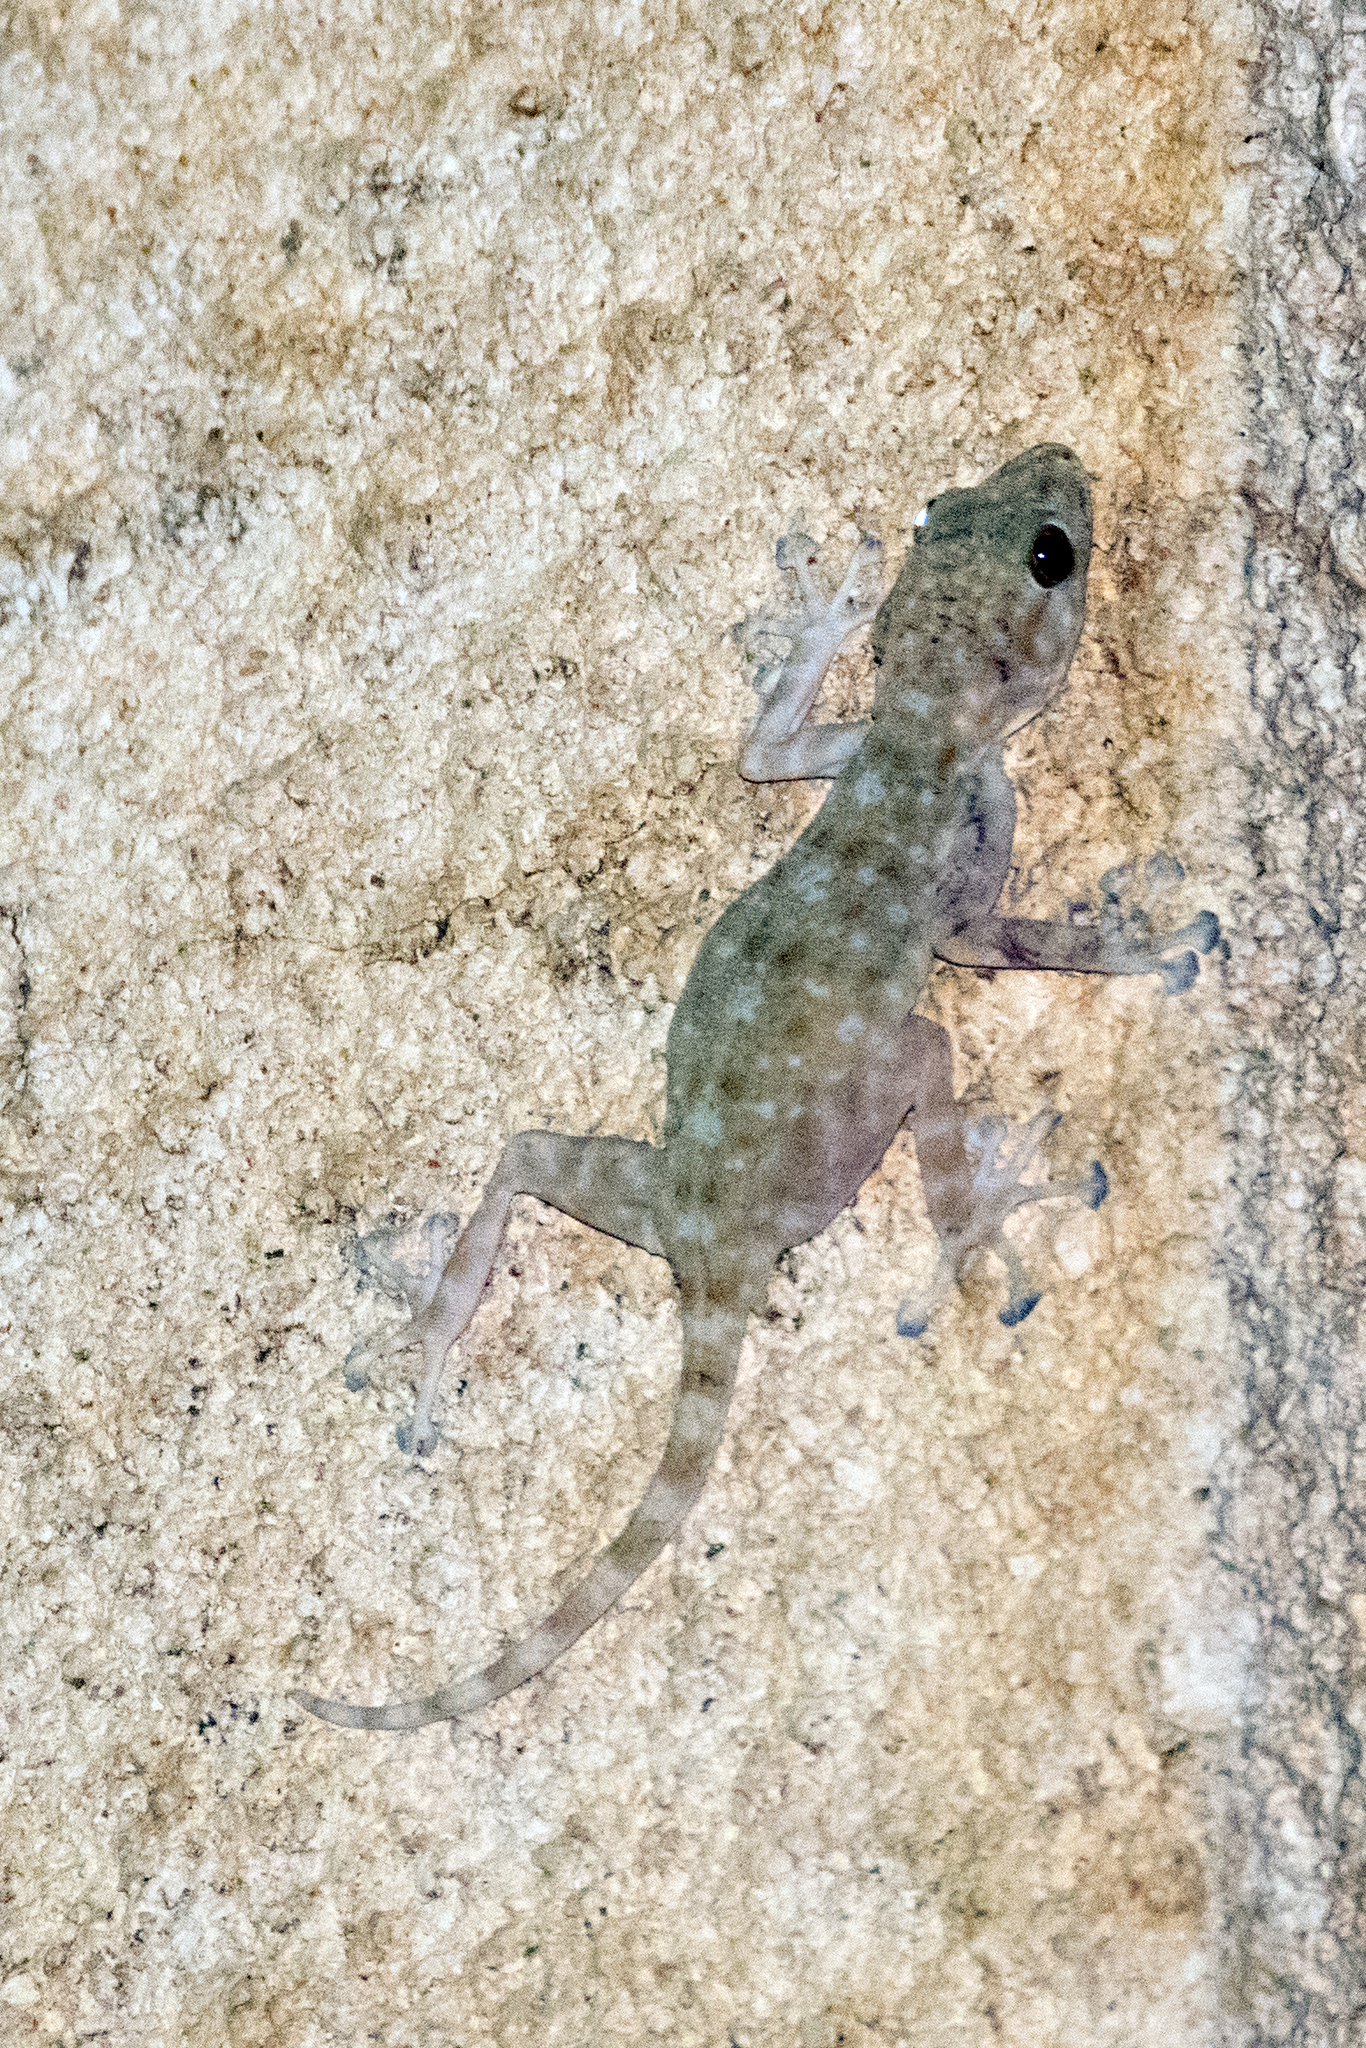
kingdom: Animalia
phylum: Chordata
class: Squamata
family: Phyllodactylidae
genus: Ptyodactylus
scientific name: Ptyodactylus guttatus
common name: Sinai fan-fingered gecko
